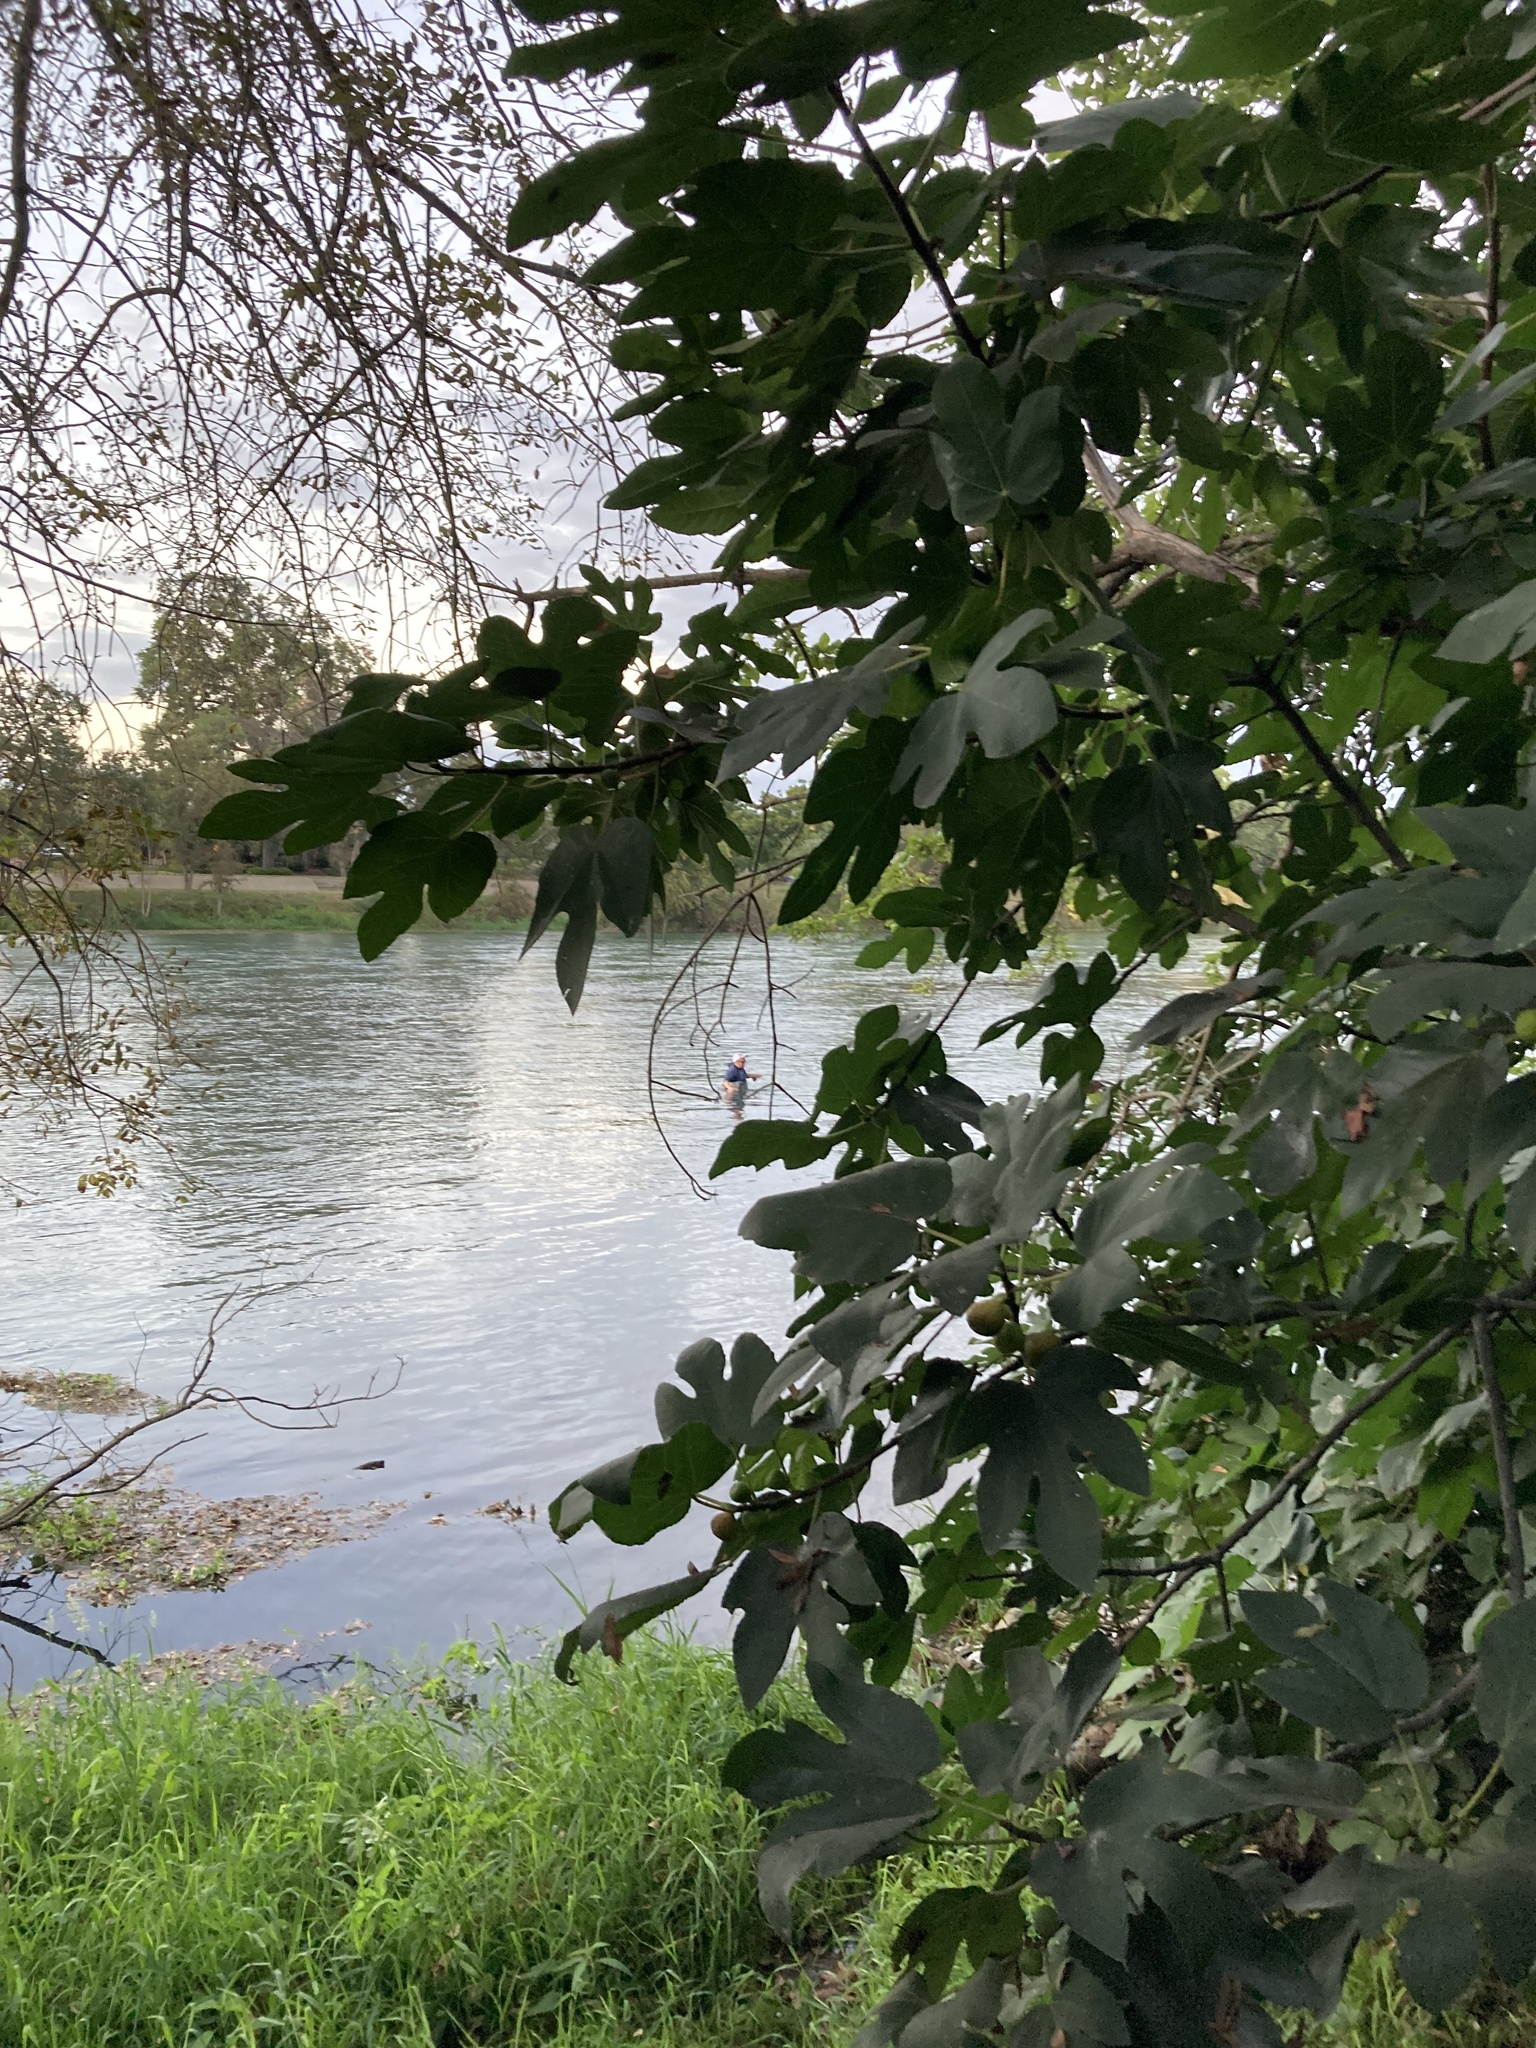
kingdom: Plantae
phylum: Tracheophyta
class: Magnoliopsida
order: Rosales
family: Moraceae
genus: Ficus
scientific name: Ficus carica
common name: Fig
